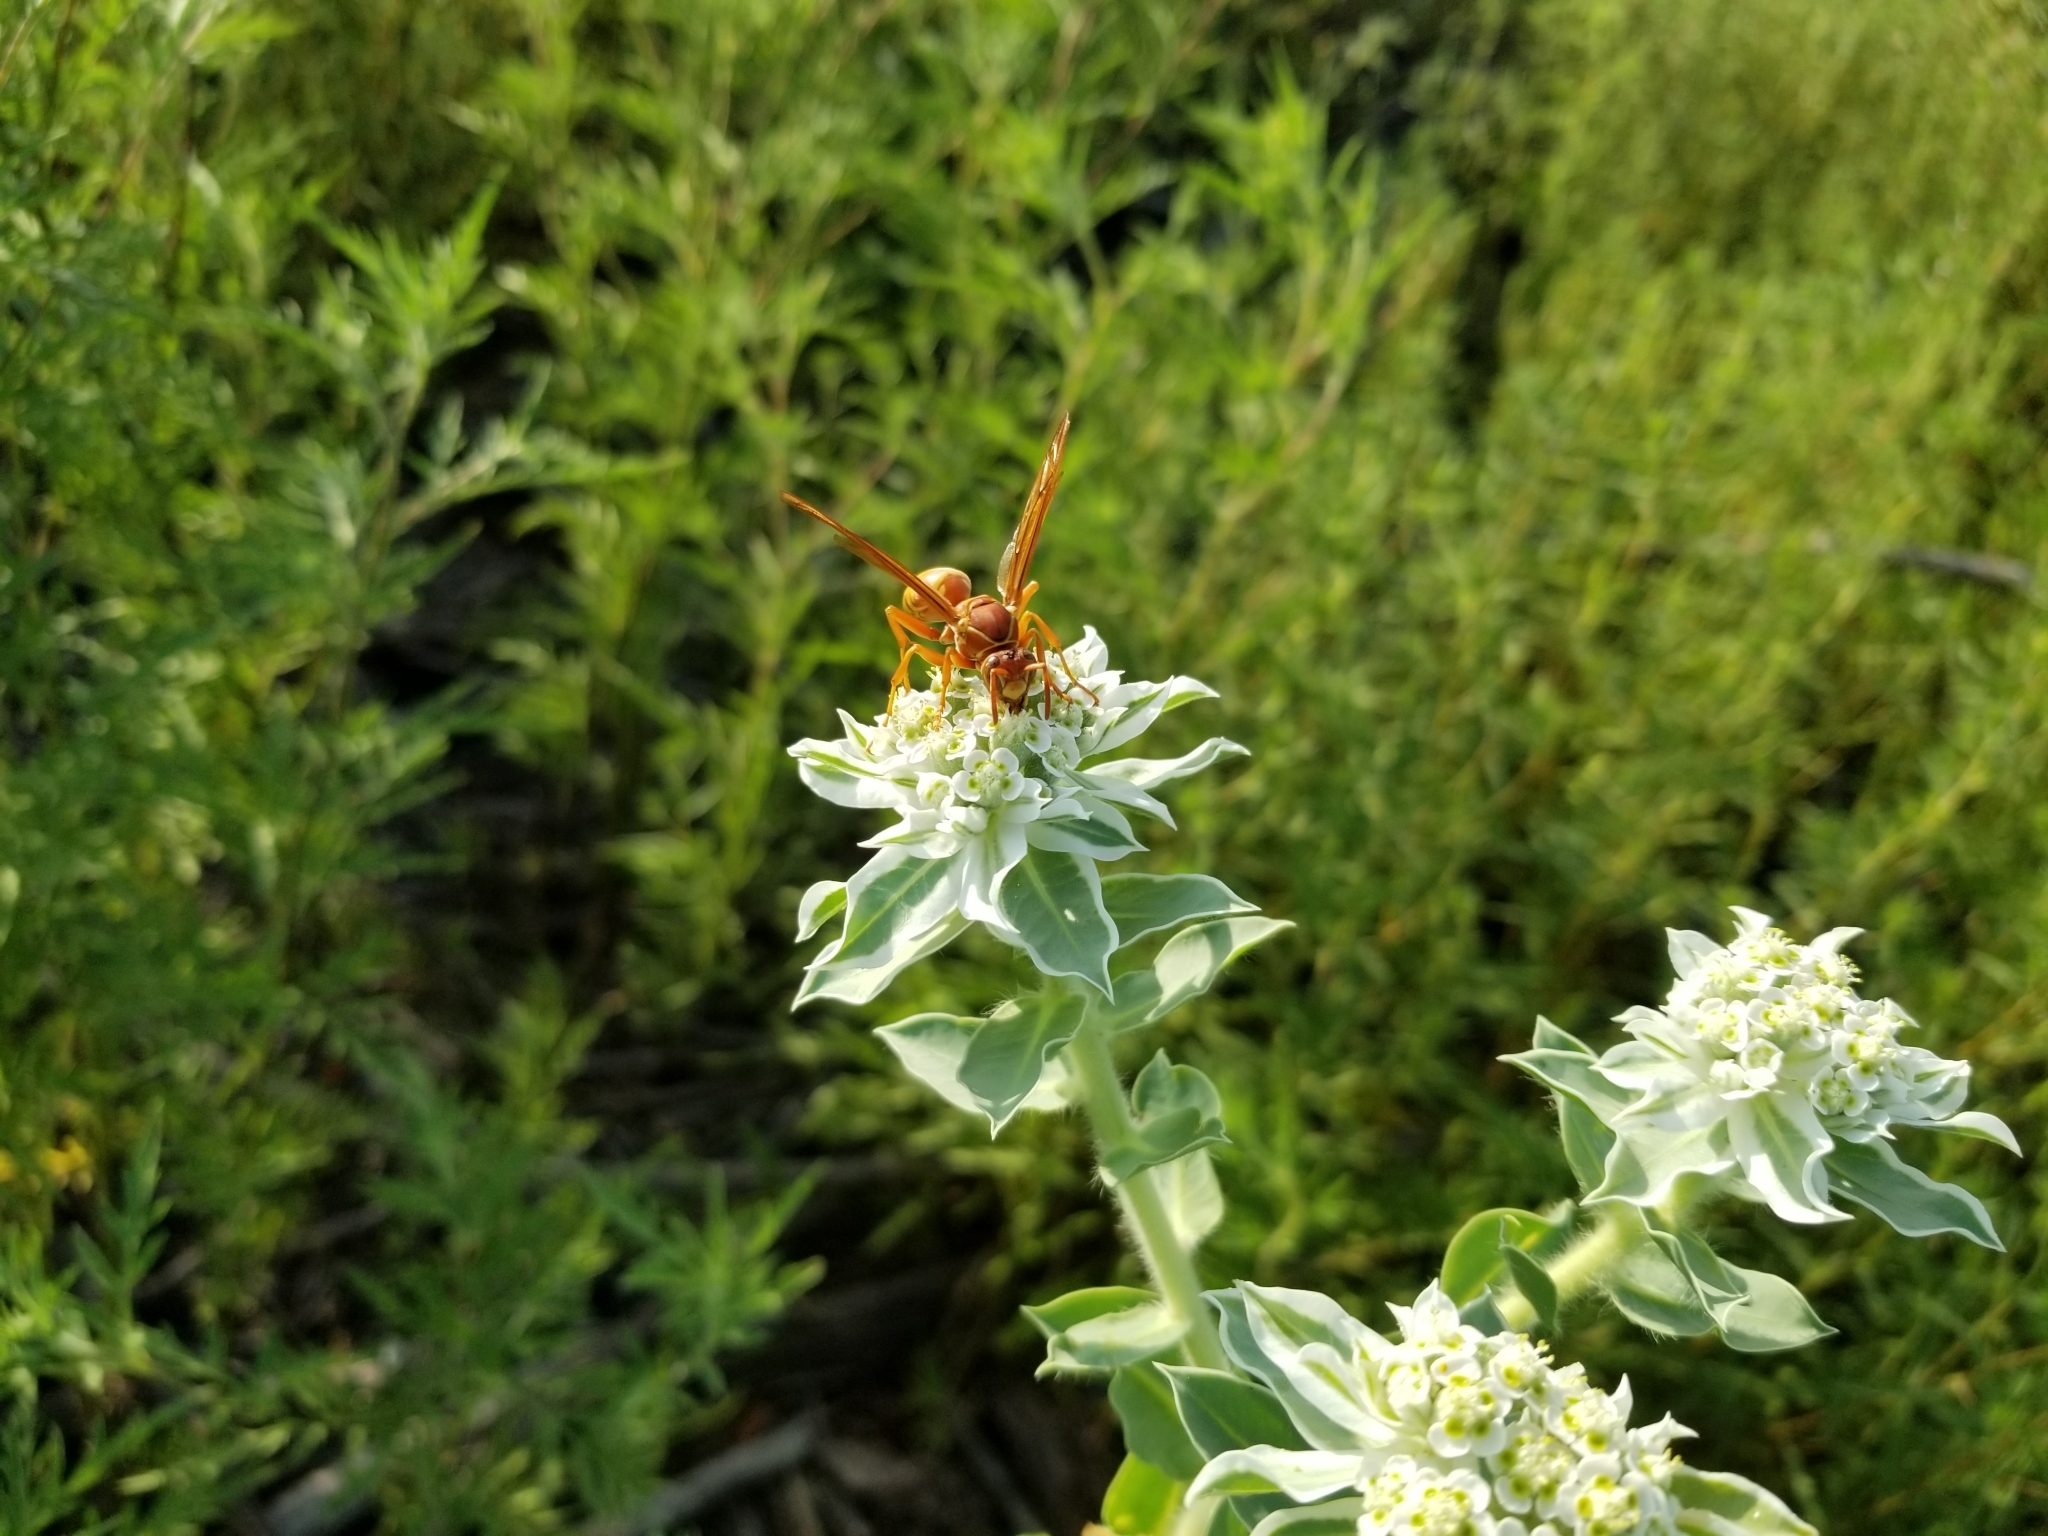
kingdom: Animalia
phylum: Arthropoda
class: Insecta
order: Hymenoptera
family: Vespidae
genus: Fuscopolistes
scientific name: Fuscopolistes
